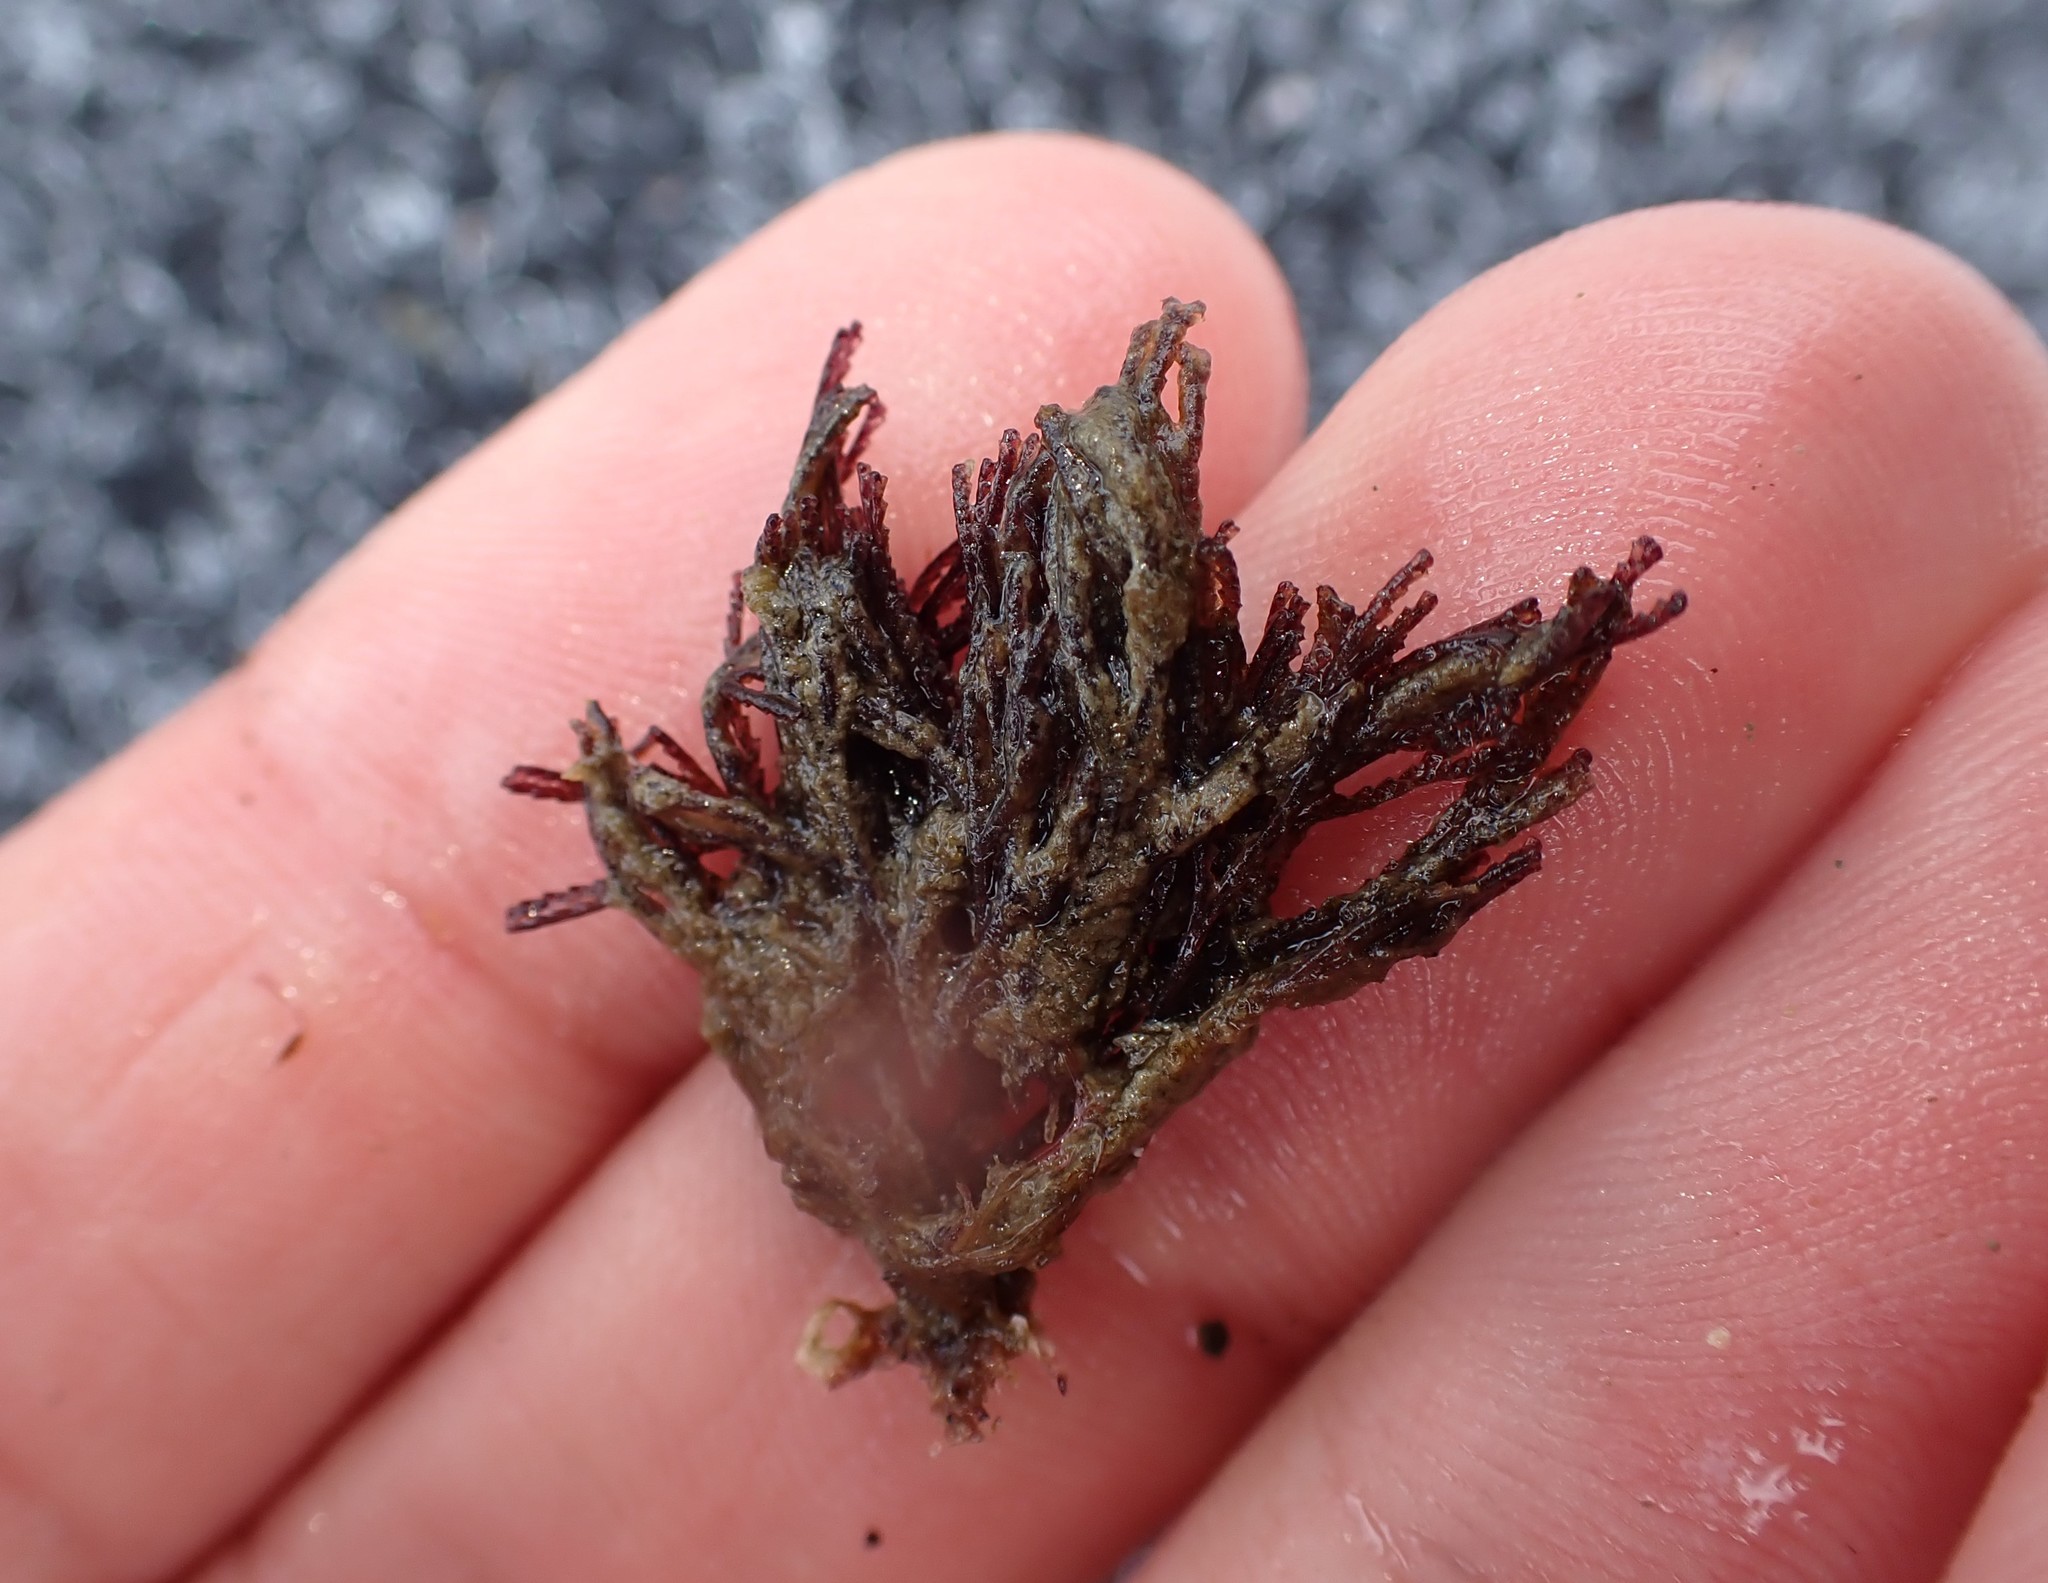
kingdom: Animalia
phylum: Bryozoa
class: Gymnolaemata
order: Cheilostomatida
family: Bugulidae
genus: Bugula
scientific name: Bugula neritina
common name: Brown bryozoan
